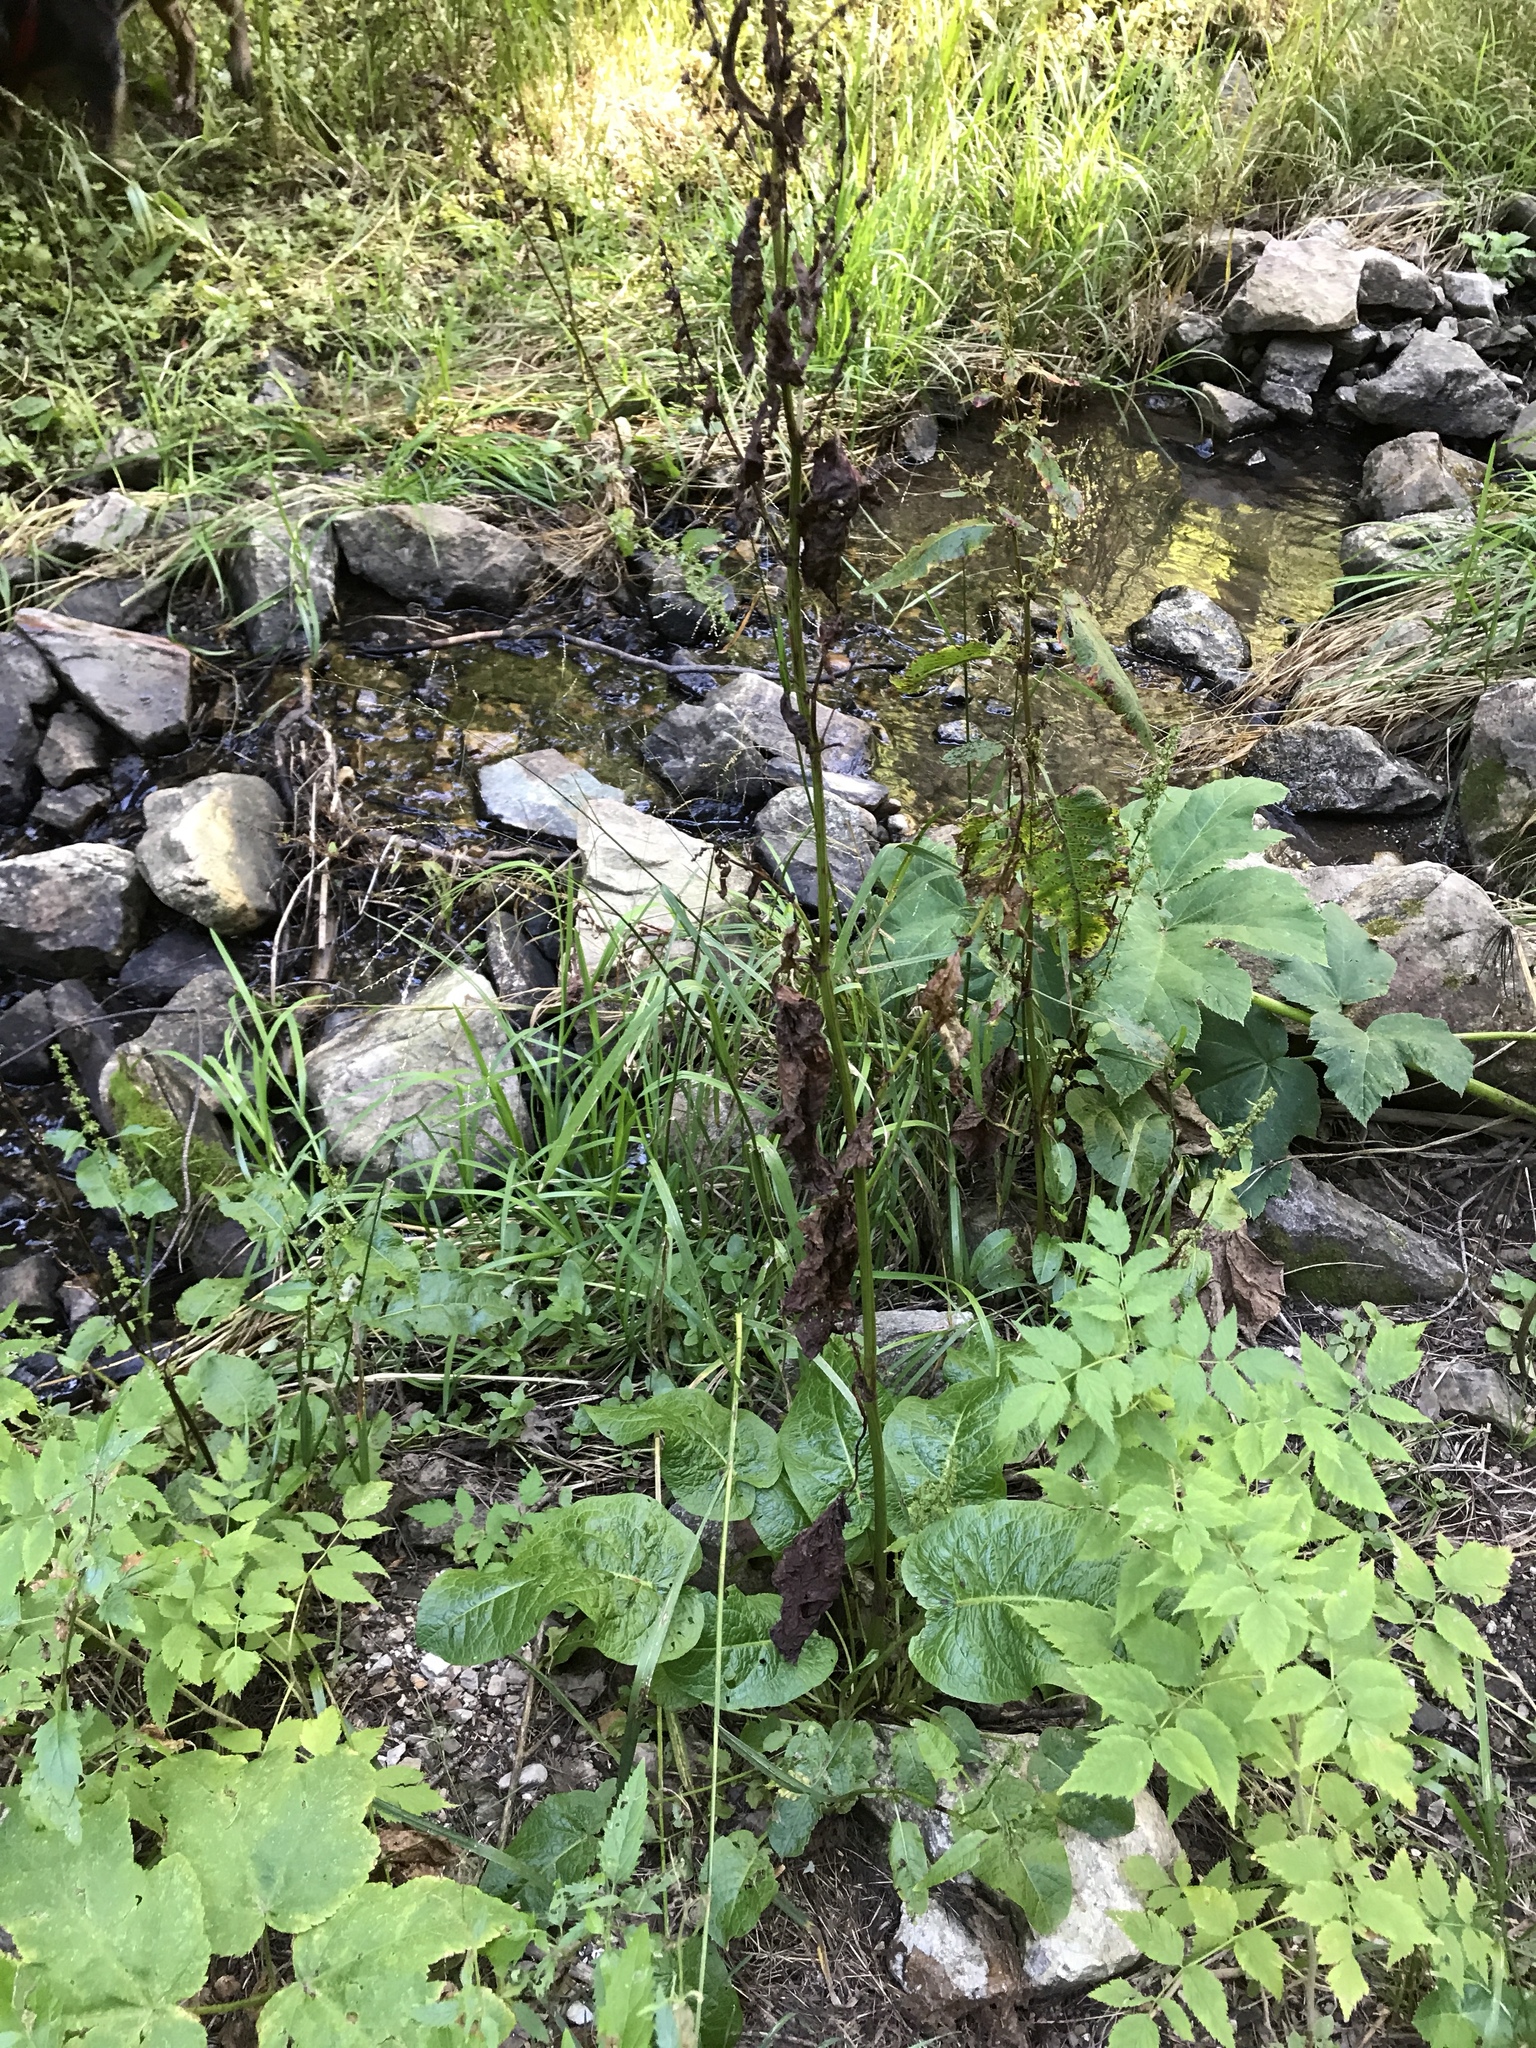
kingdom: Plantae
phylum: Tracheophyta
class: Magnoliopsida
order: Caryophyllales
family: Polygonaceae
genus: Rumex
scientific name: Rumex obtusifolius
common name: Bitter dock
